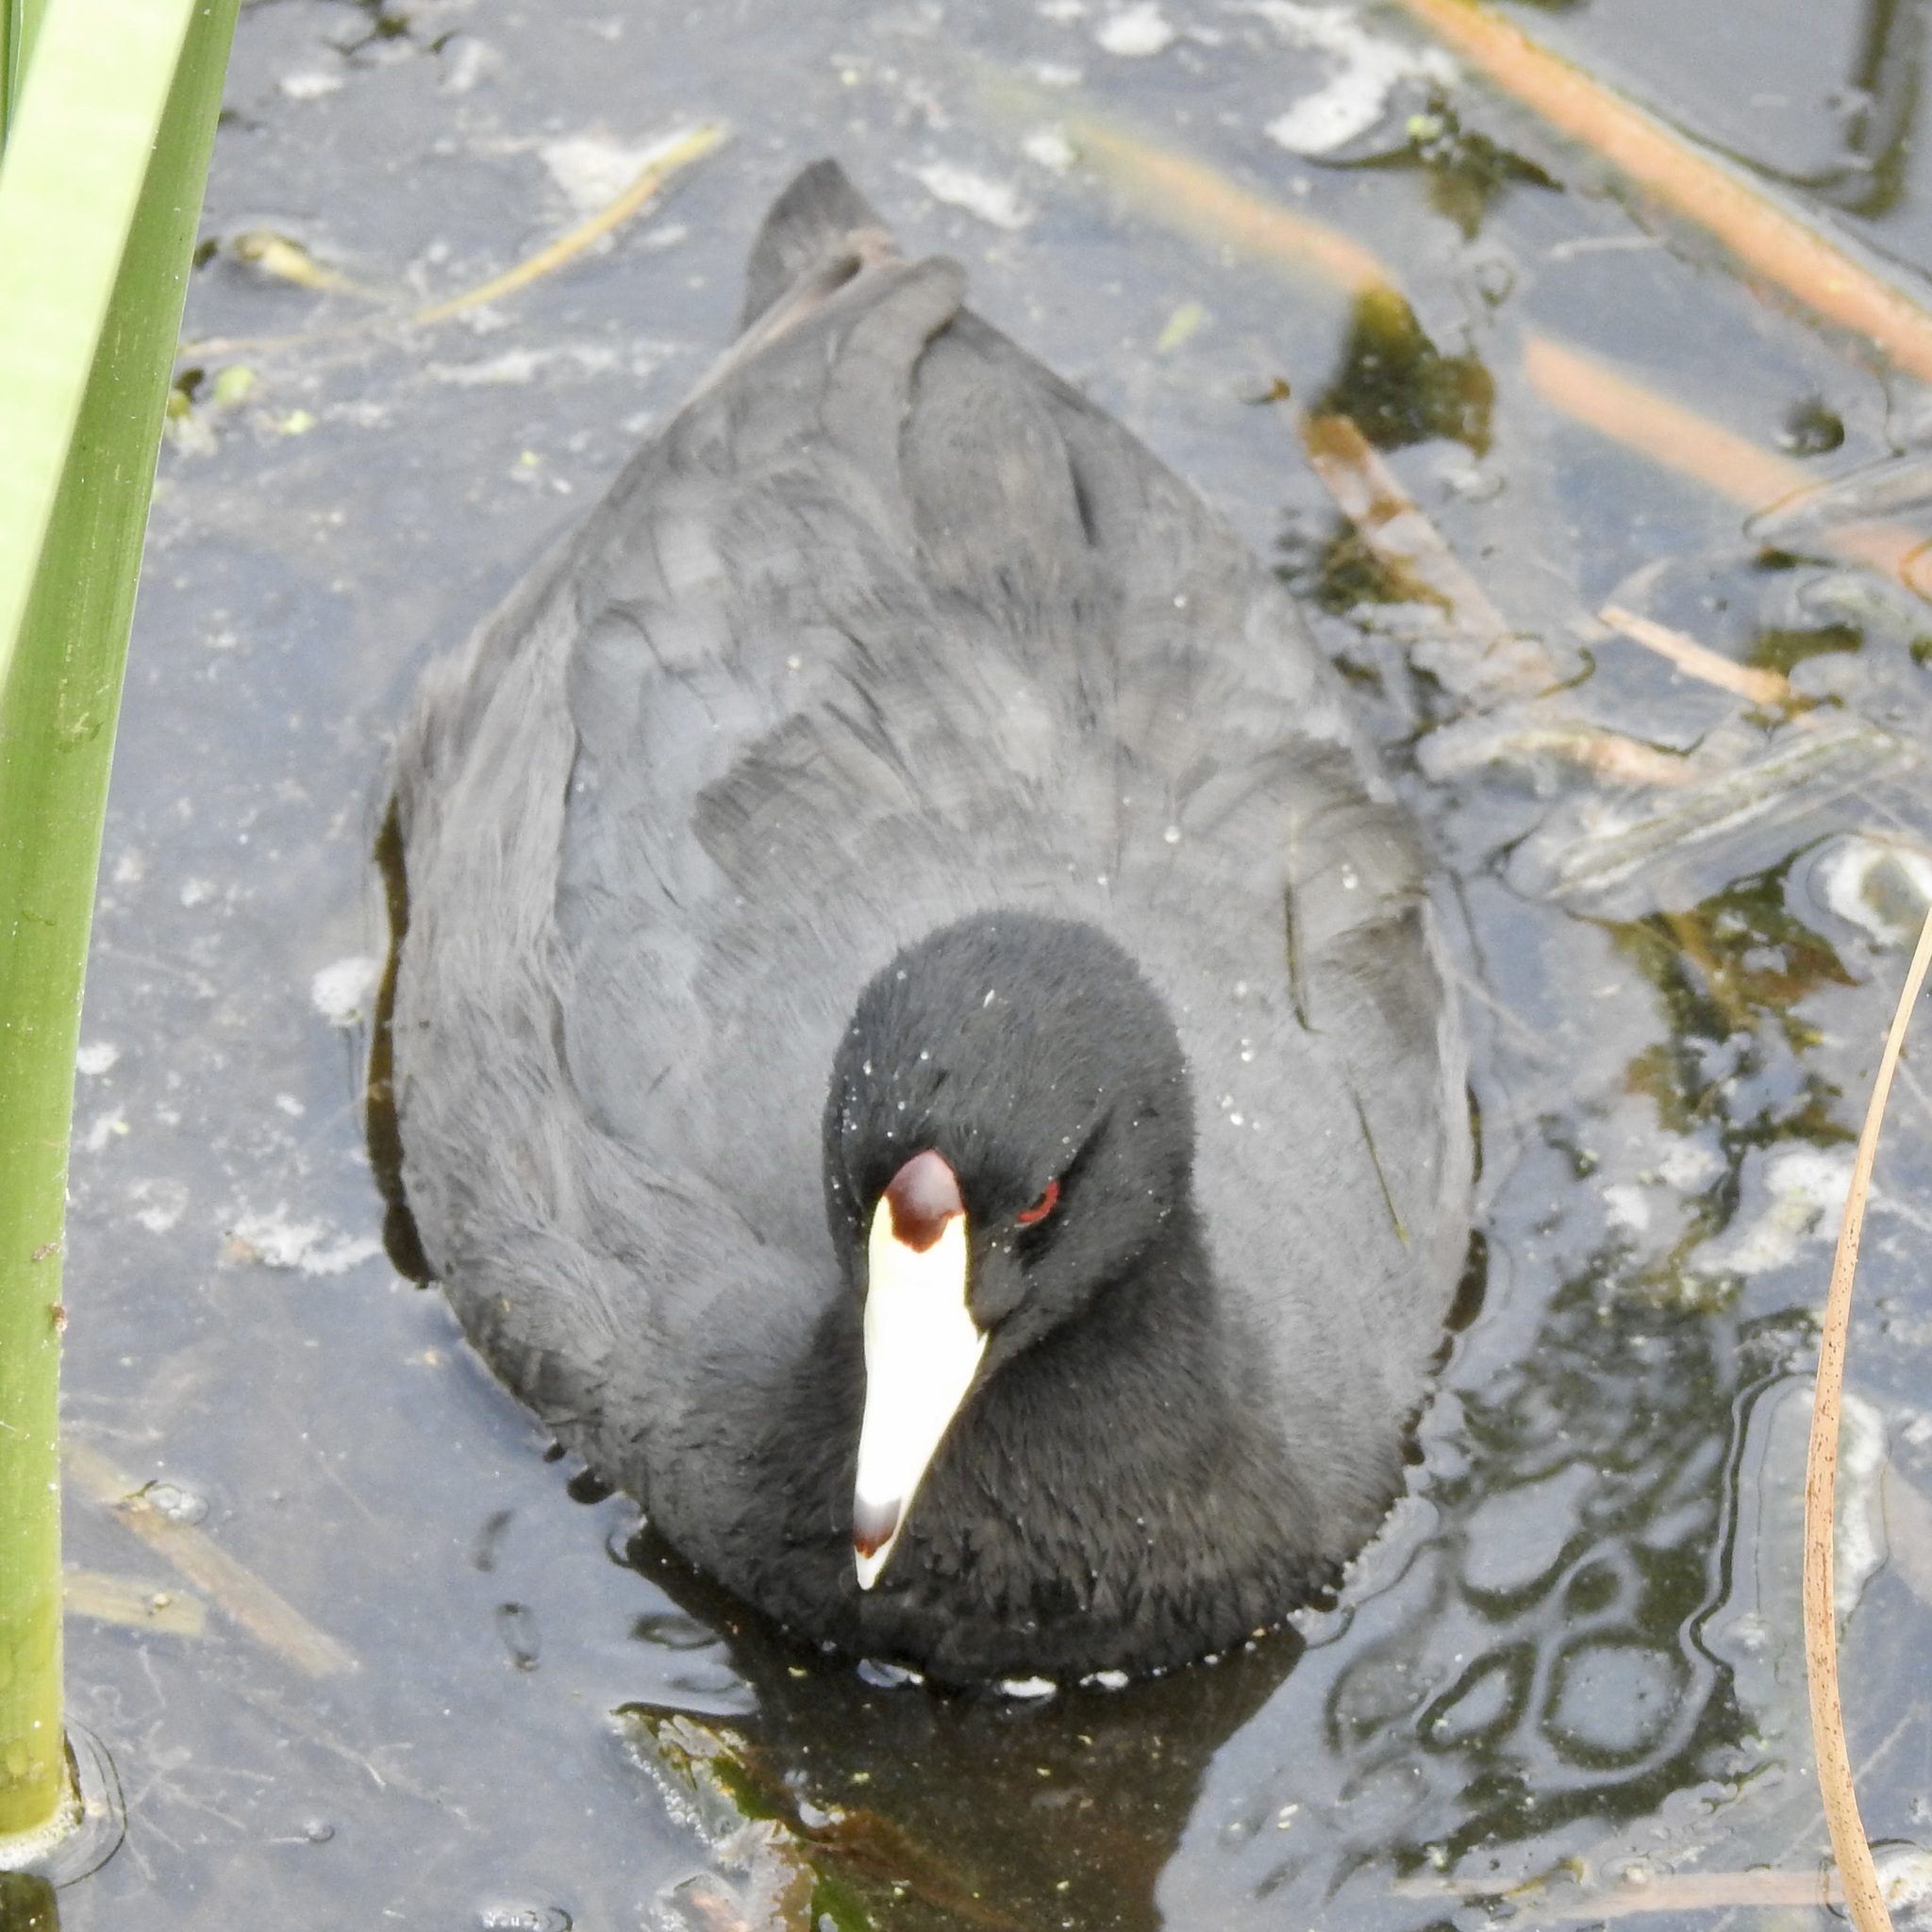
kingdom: Animalia
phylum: Chordata
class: Aves
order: Gruiformes
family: Rallidae
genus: Fulica
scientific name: Fulica americana
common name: American coot
